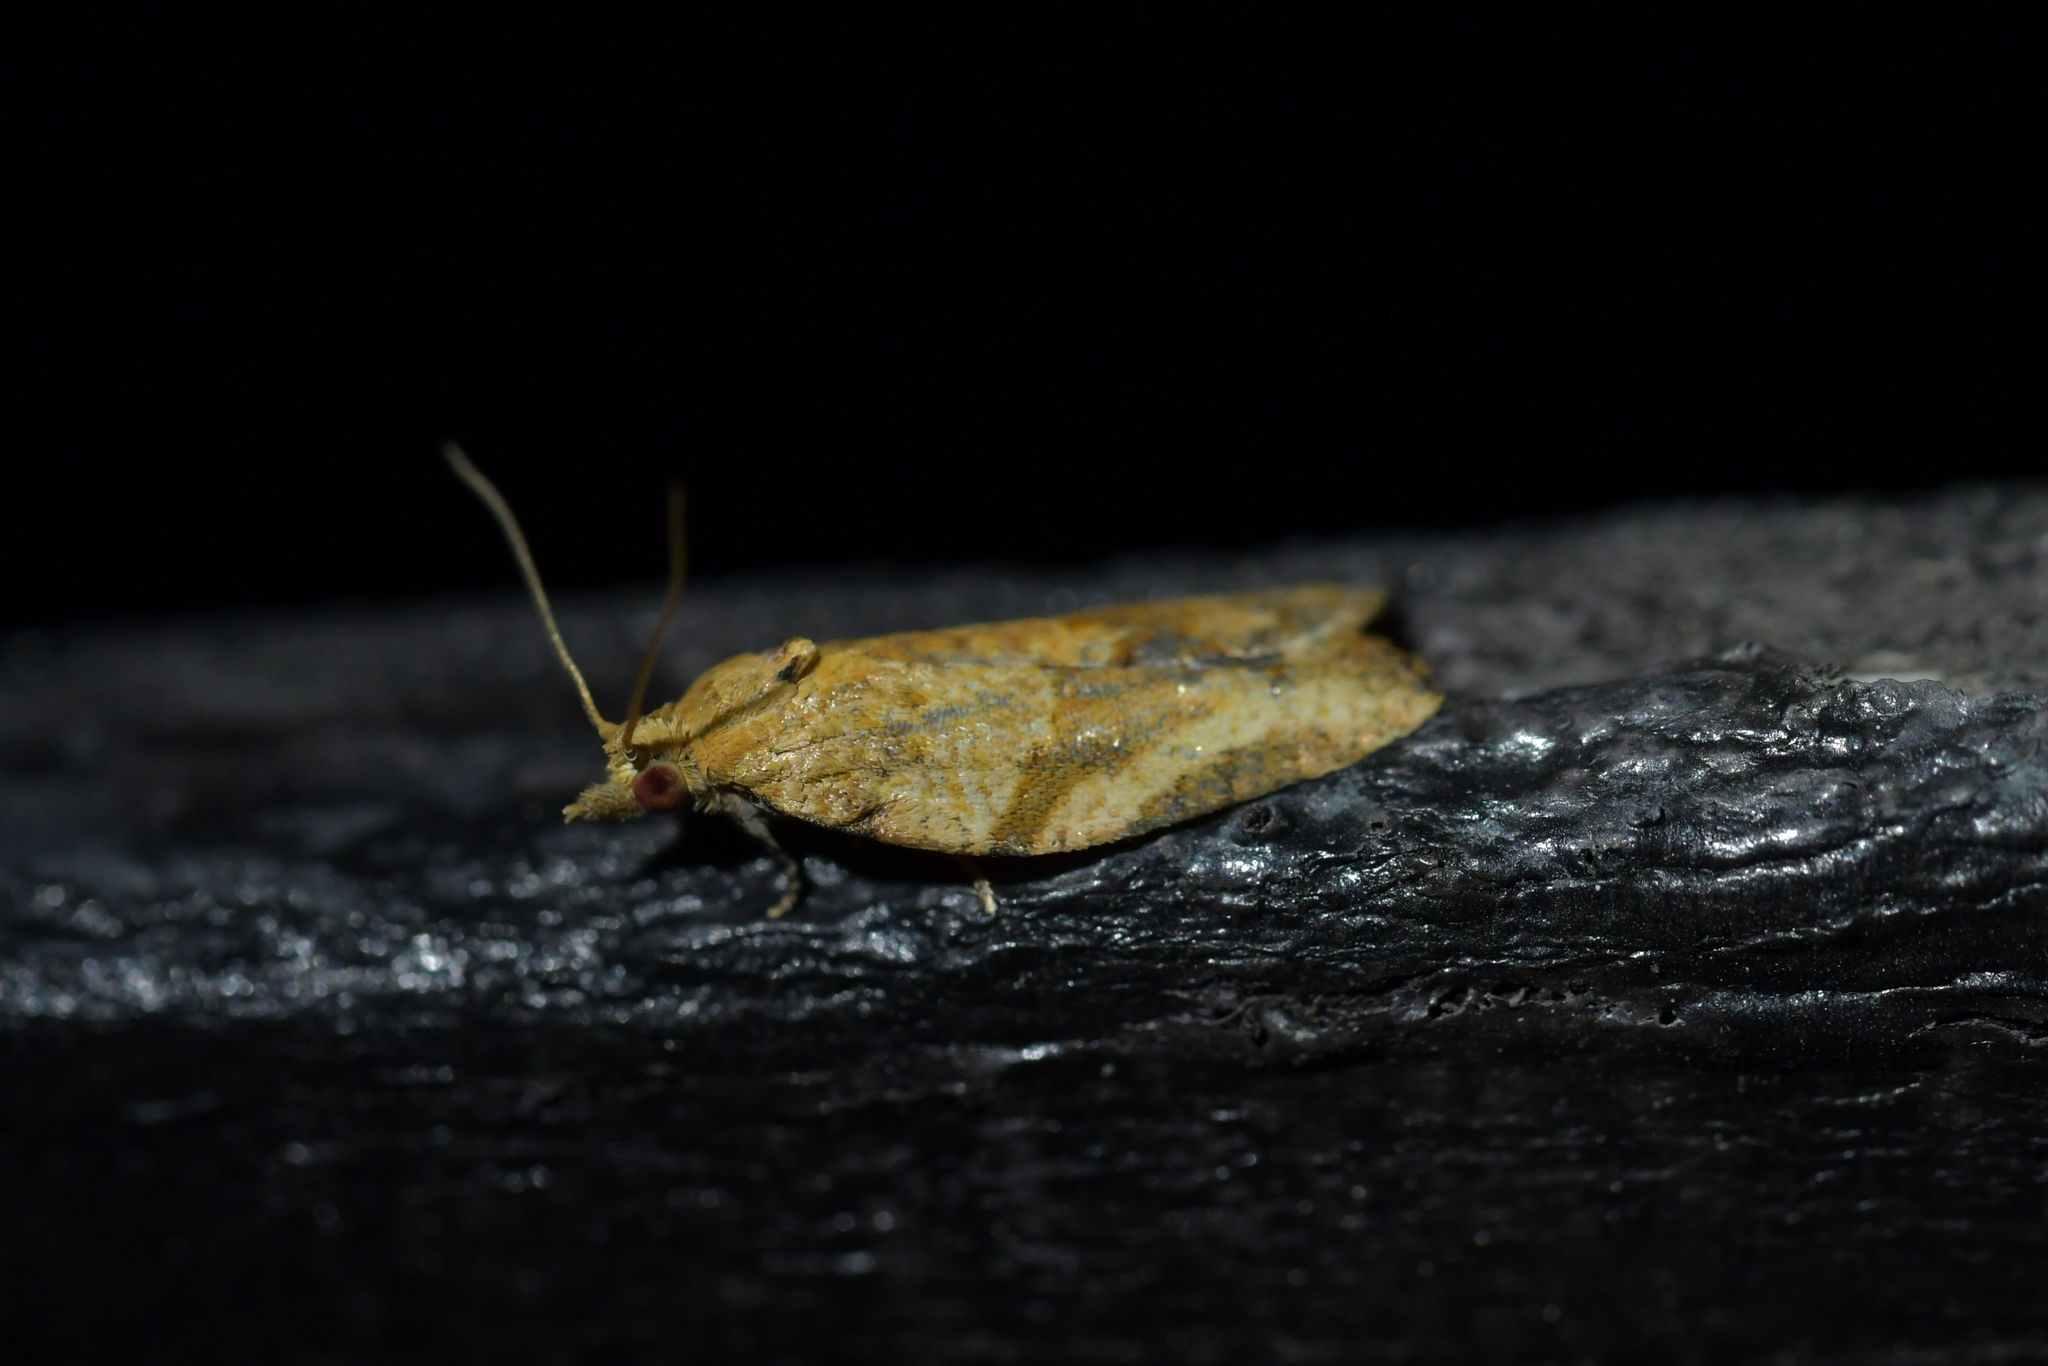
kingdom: Animalia
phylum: Arthropoda
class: Insecta
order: Lepidoptera
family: Tortricidae
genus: Epiphyas
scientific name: Epiphyas postvittana
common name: Light brown apple moth
